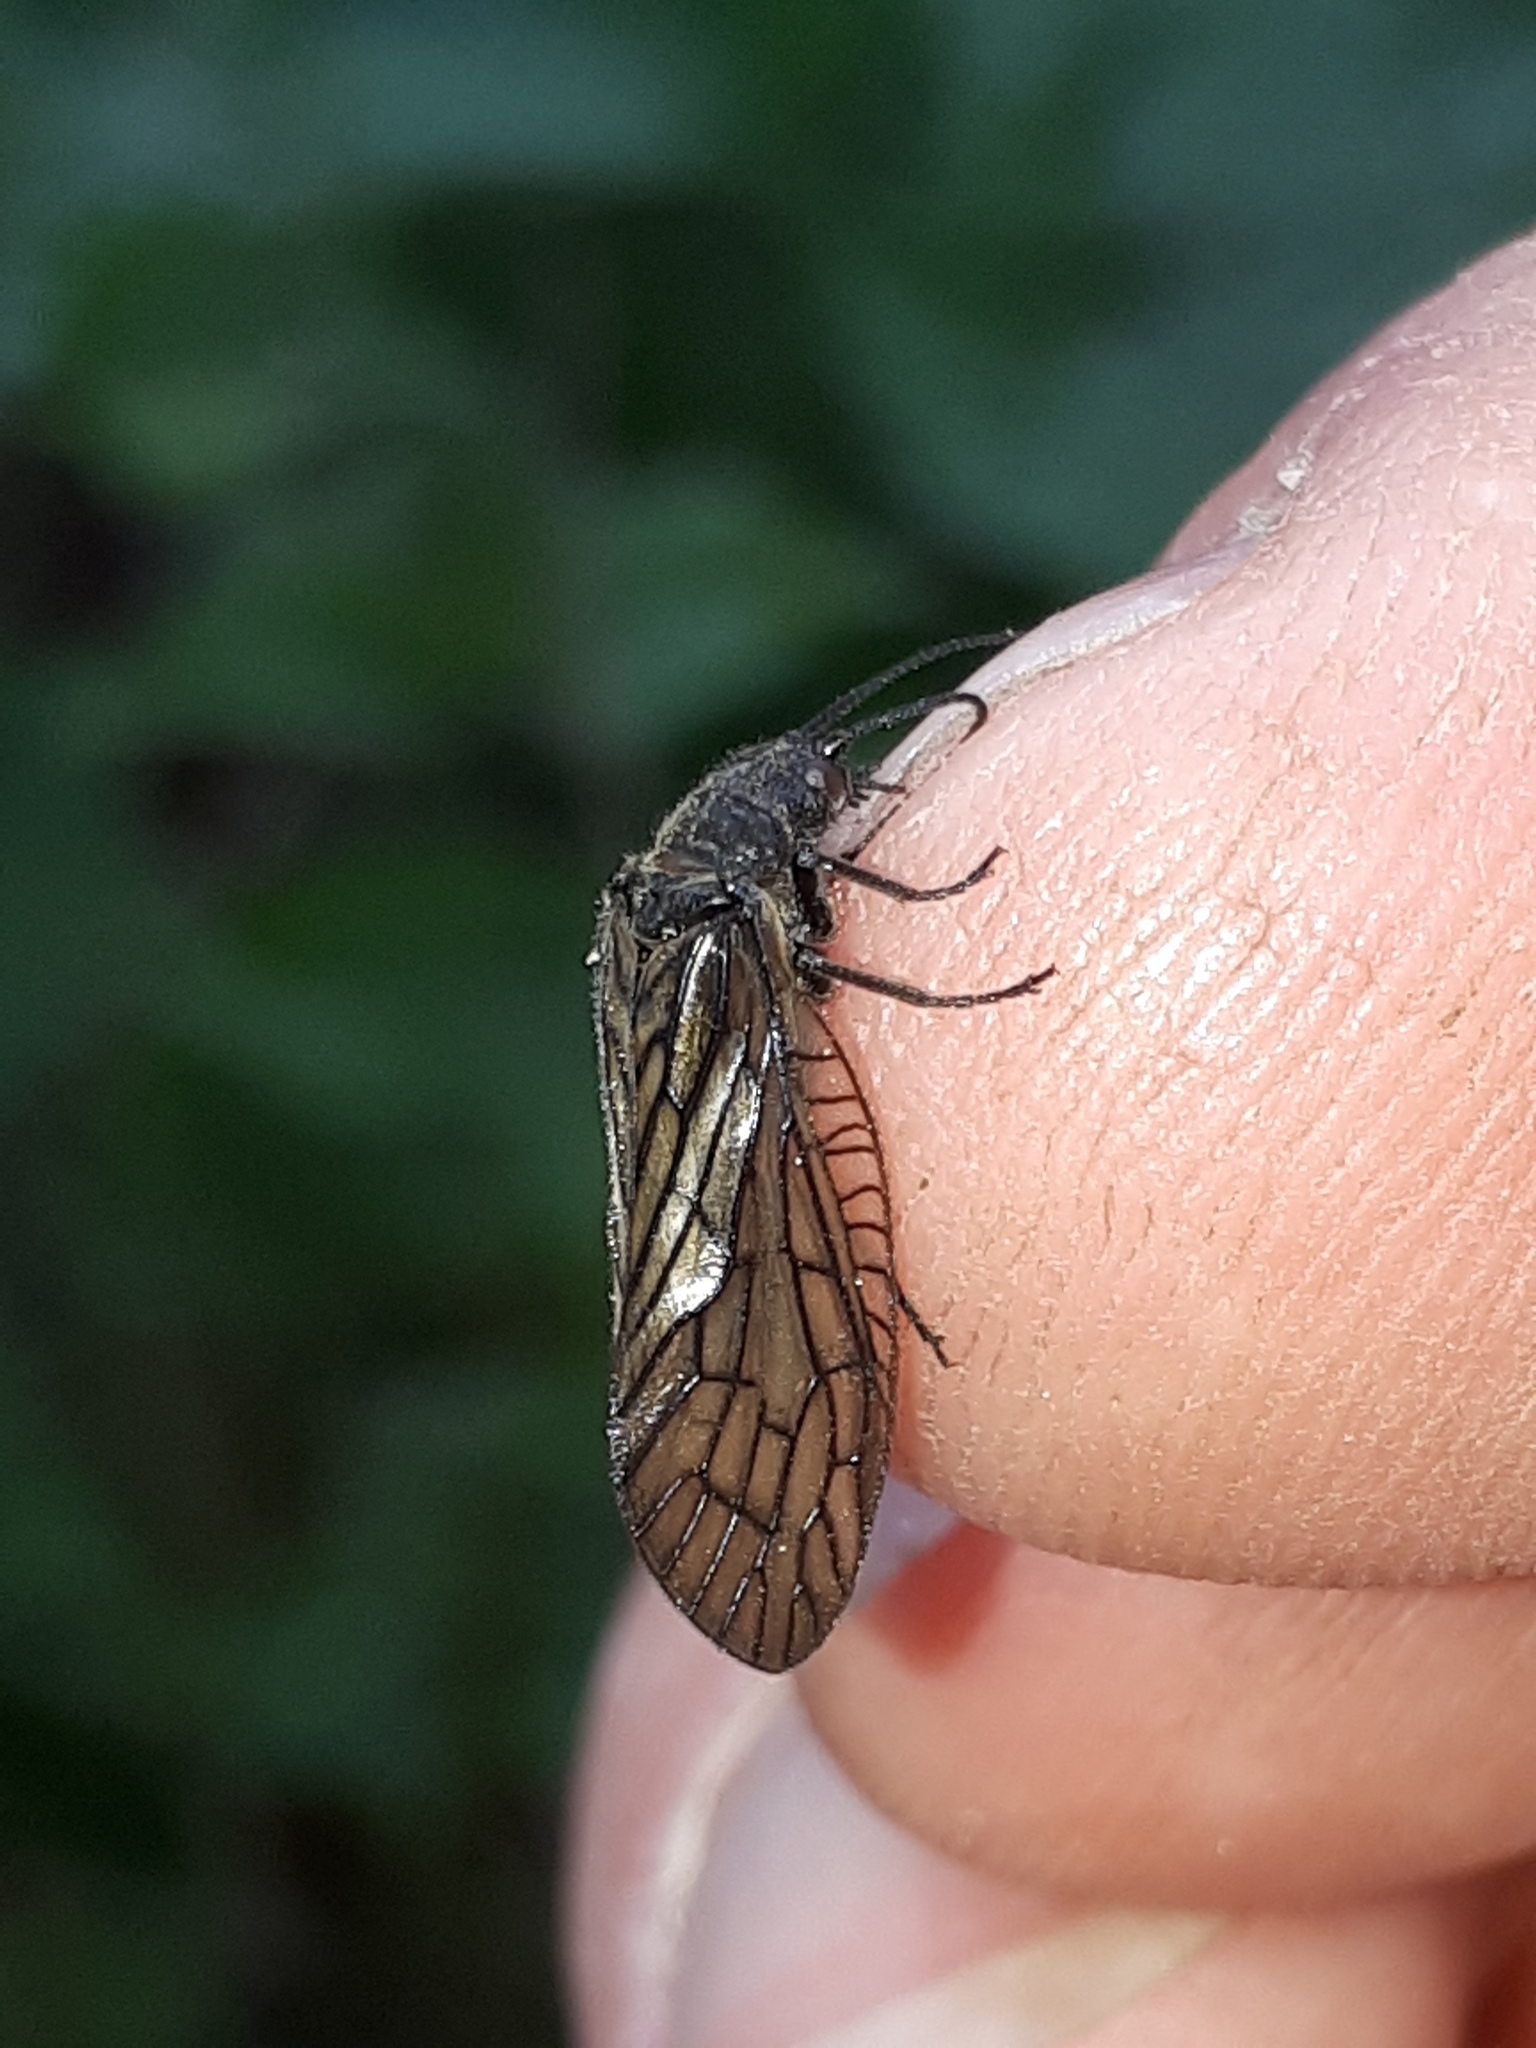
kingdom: Animalia
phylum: Arthropoda
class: Insecta
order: Megaloptera
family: Sialidae
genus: Sialis
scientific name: Sialis
